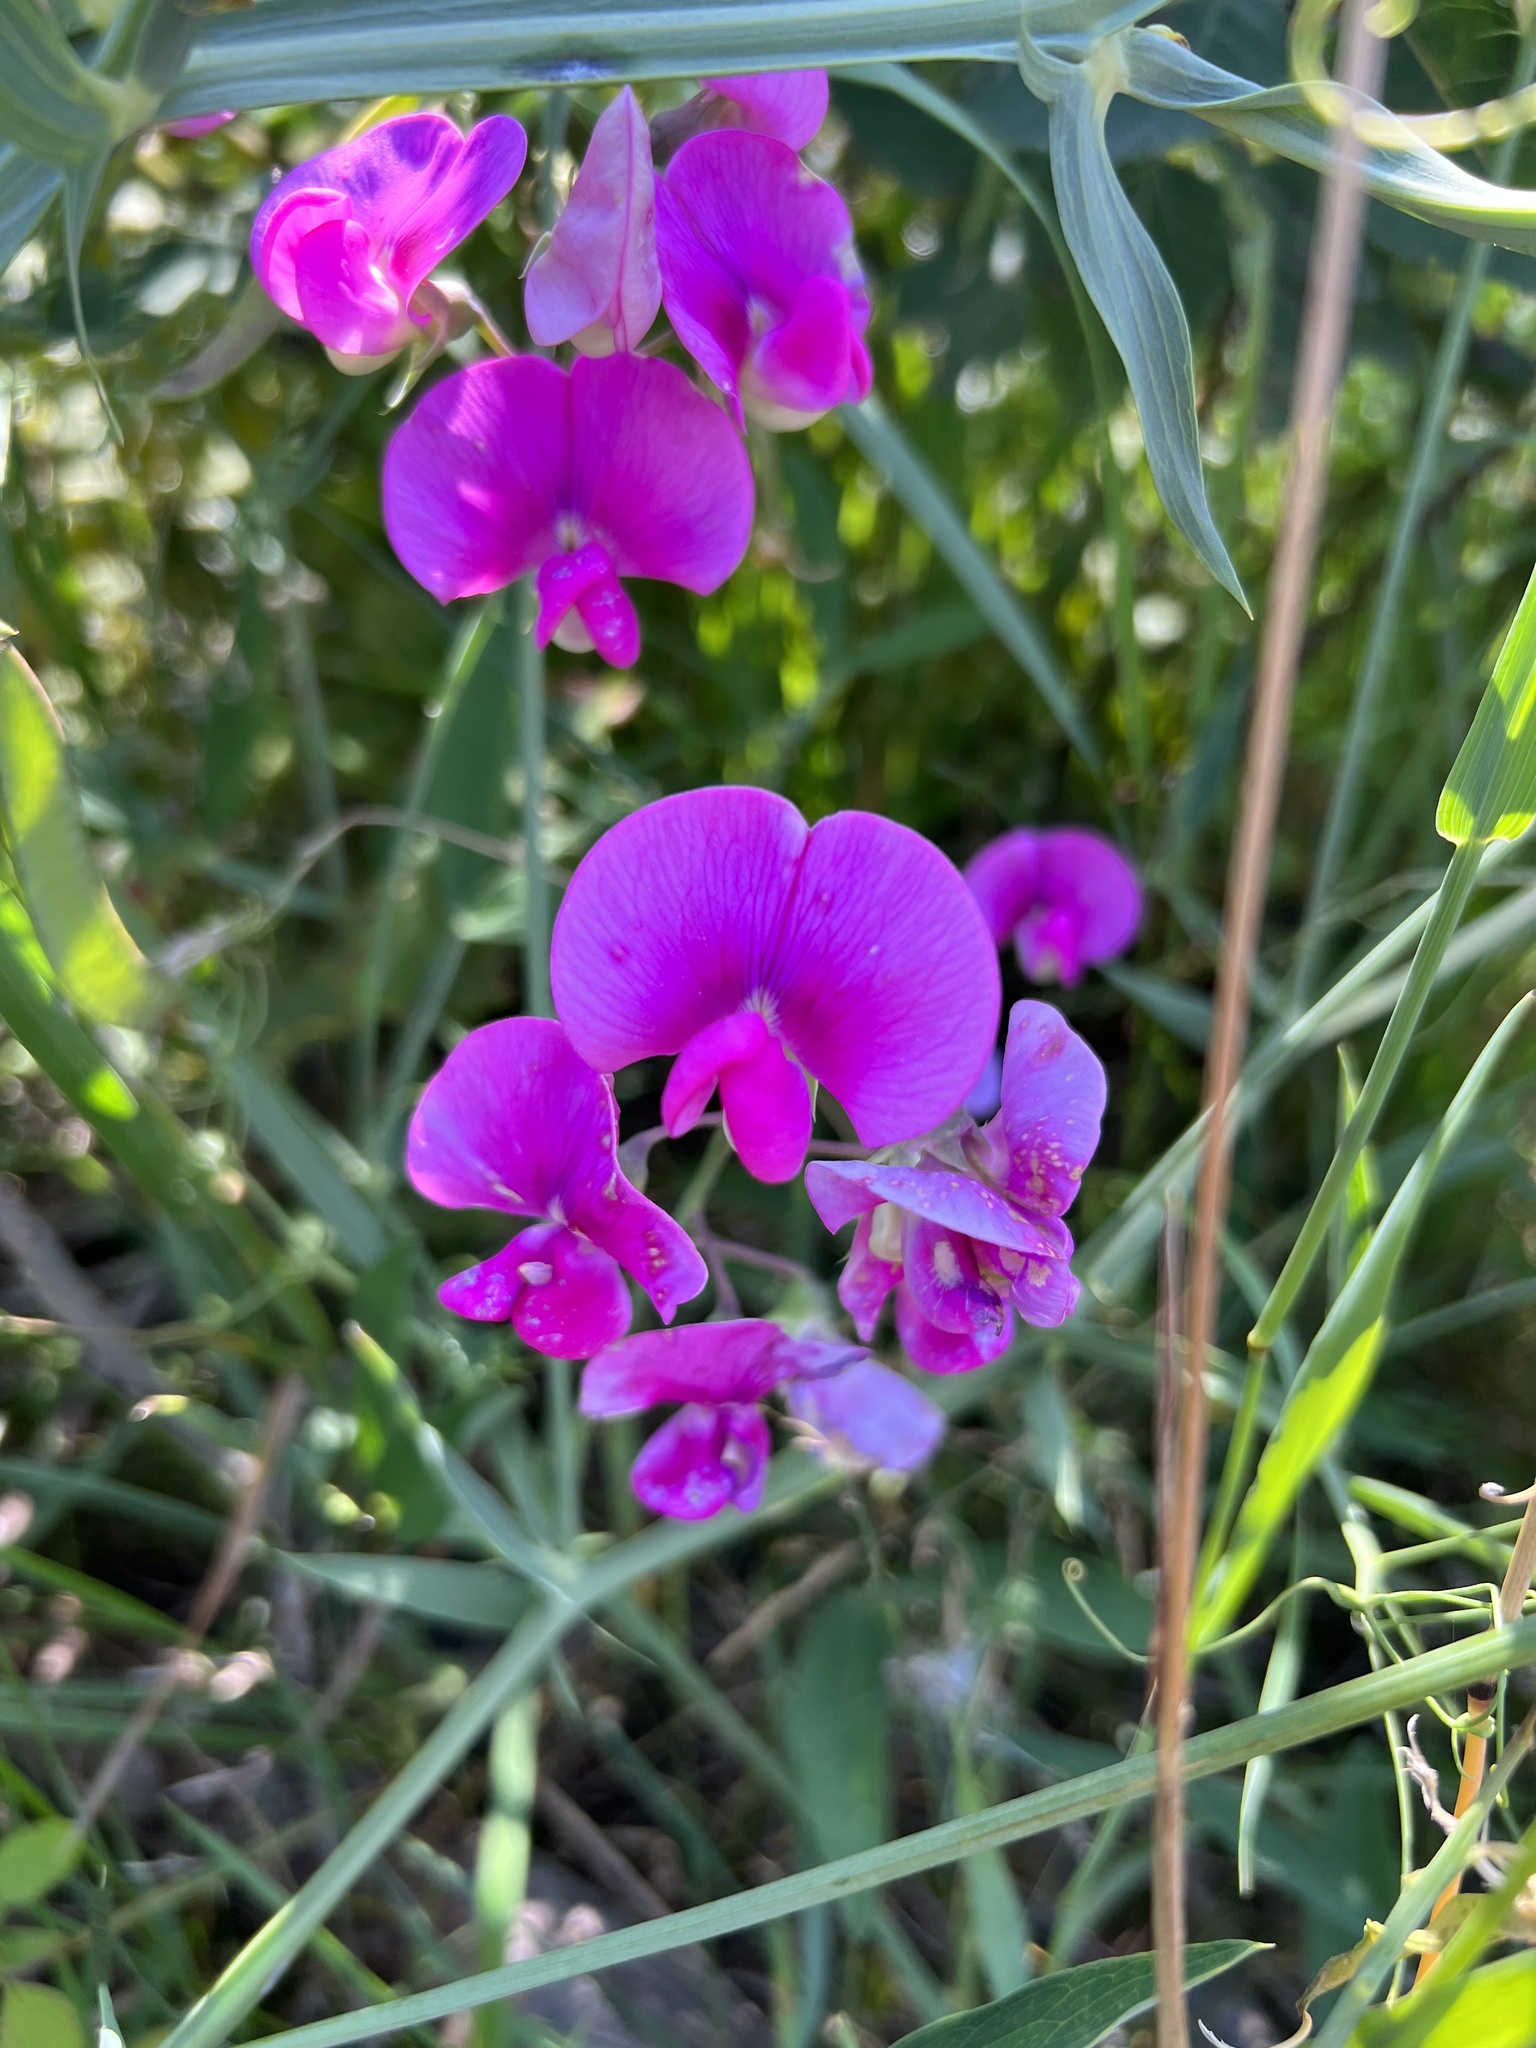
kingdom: Plantae
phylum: Tracheophyta
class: Magnoliopsida
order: Fabales
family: Fabaceae
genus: Lathyrus
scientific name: Lathyrus latifolius
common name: Perennial pea
